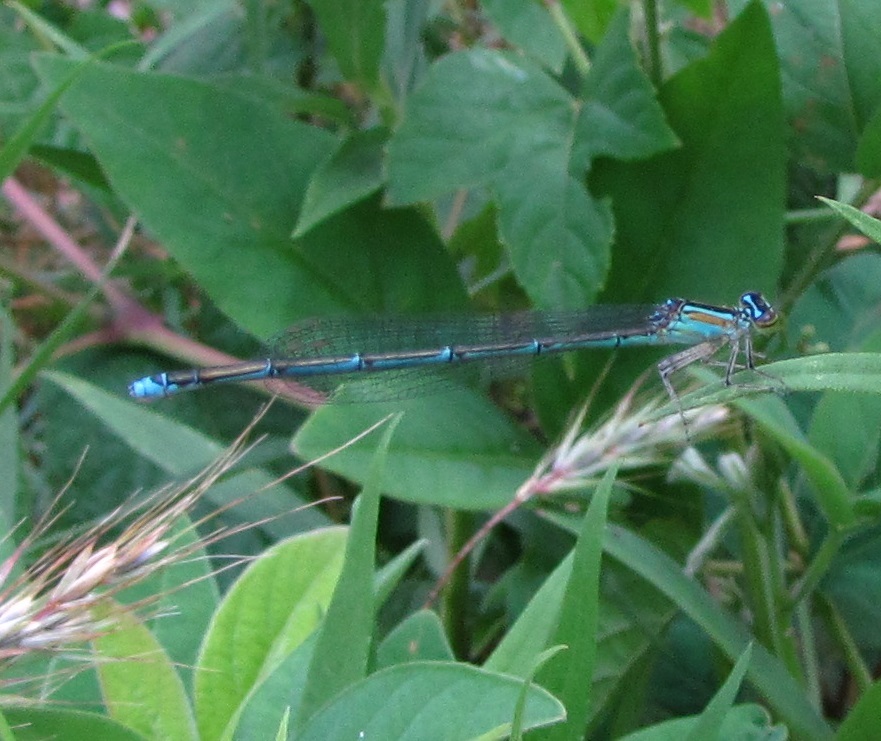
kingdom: Animalia
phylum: Arthropoda
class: Insecta
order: Odonata
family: Coenagrionidae
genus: Enallagma
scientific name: Enallagma exsulans
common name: Stream bluet
